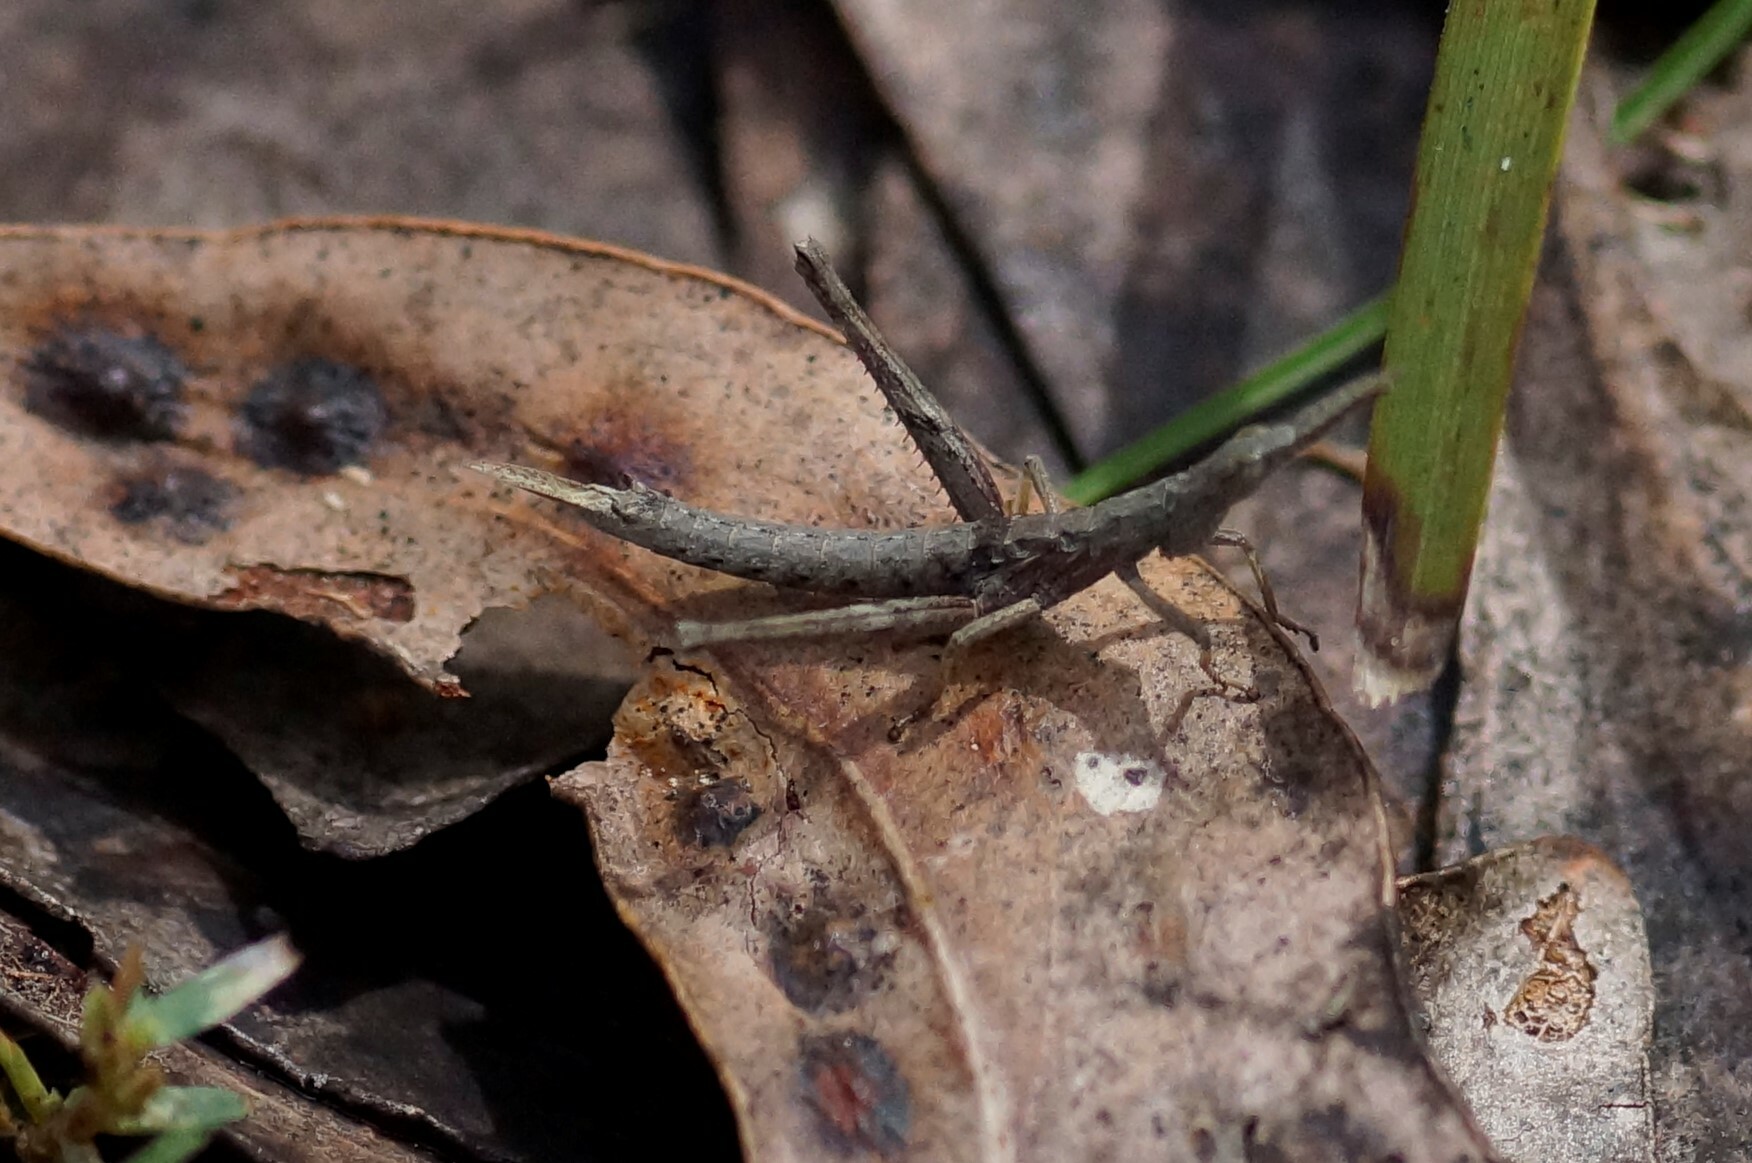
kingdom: Animalia
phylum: Arthropoda
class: Insecta
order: Orthoptera
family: Morabidae
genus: Vandiemenella
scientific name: Vandiemenella viatica
